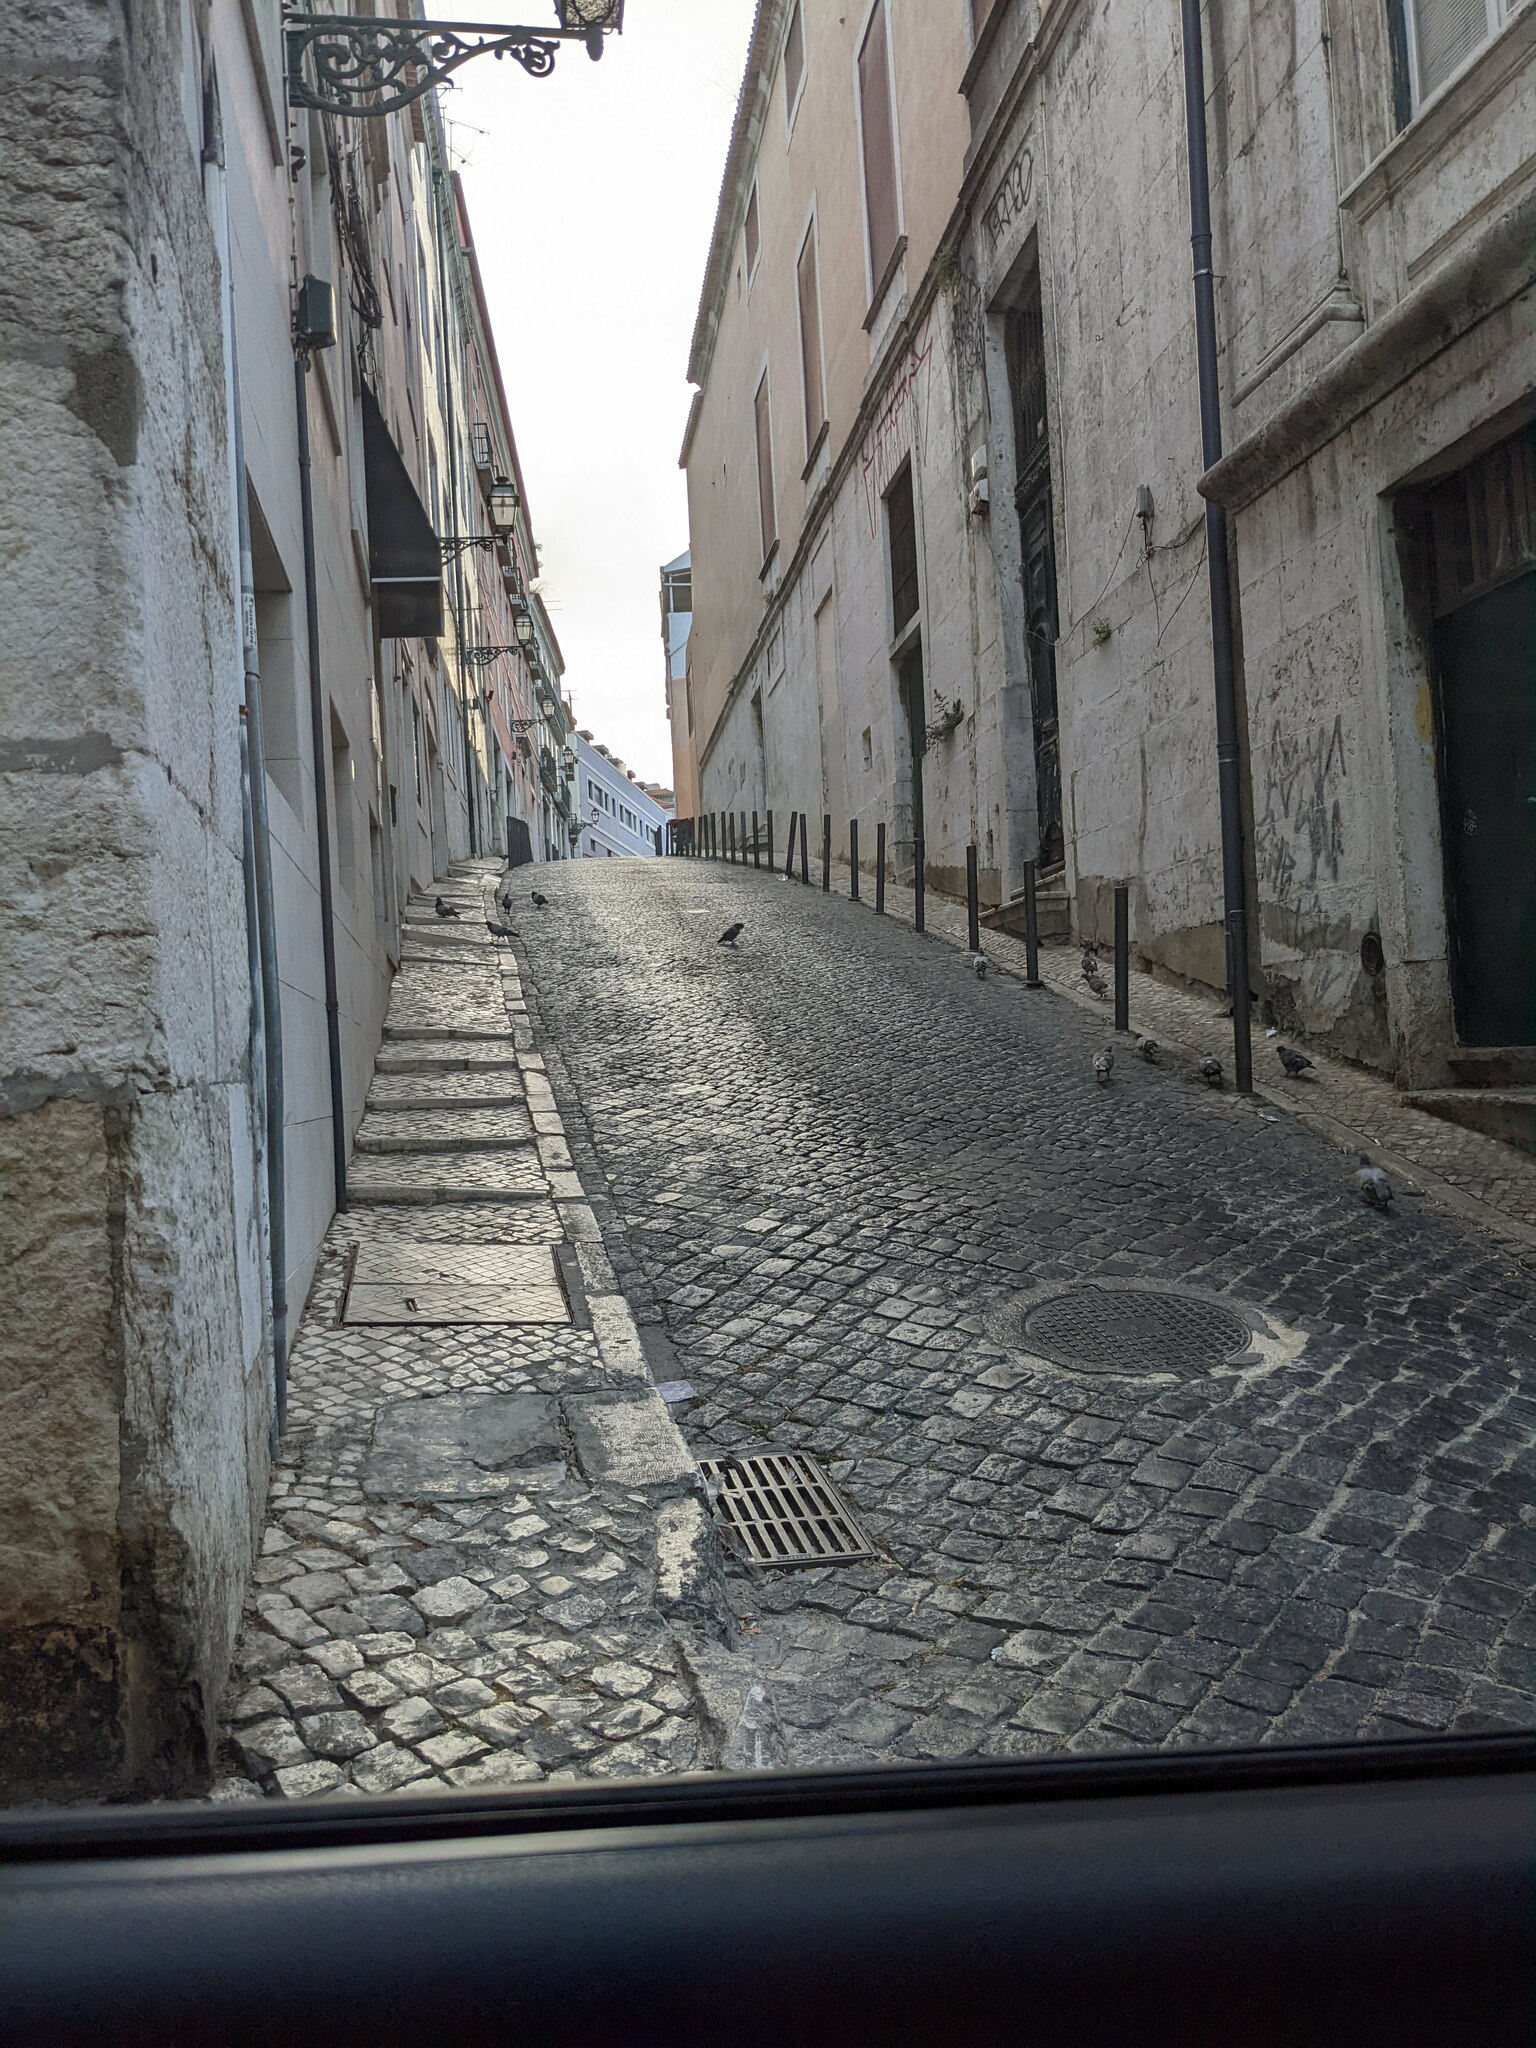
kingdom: Animalia
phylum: Chordata
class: Aves
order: Columbiformes
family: Columbidae
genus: Columba
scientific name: Columba livia
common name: Rock pigeon
